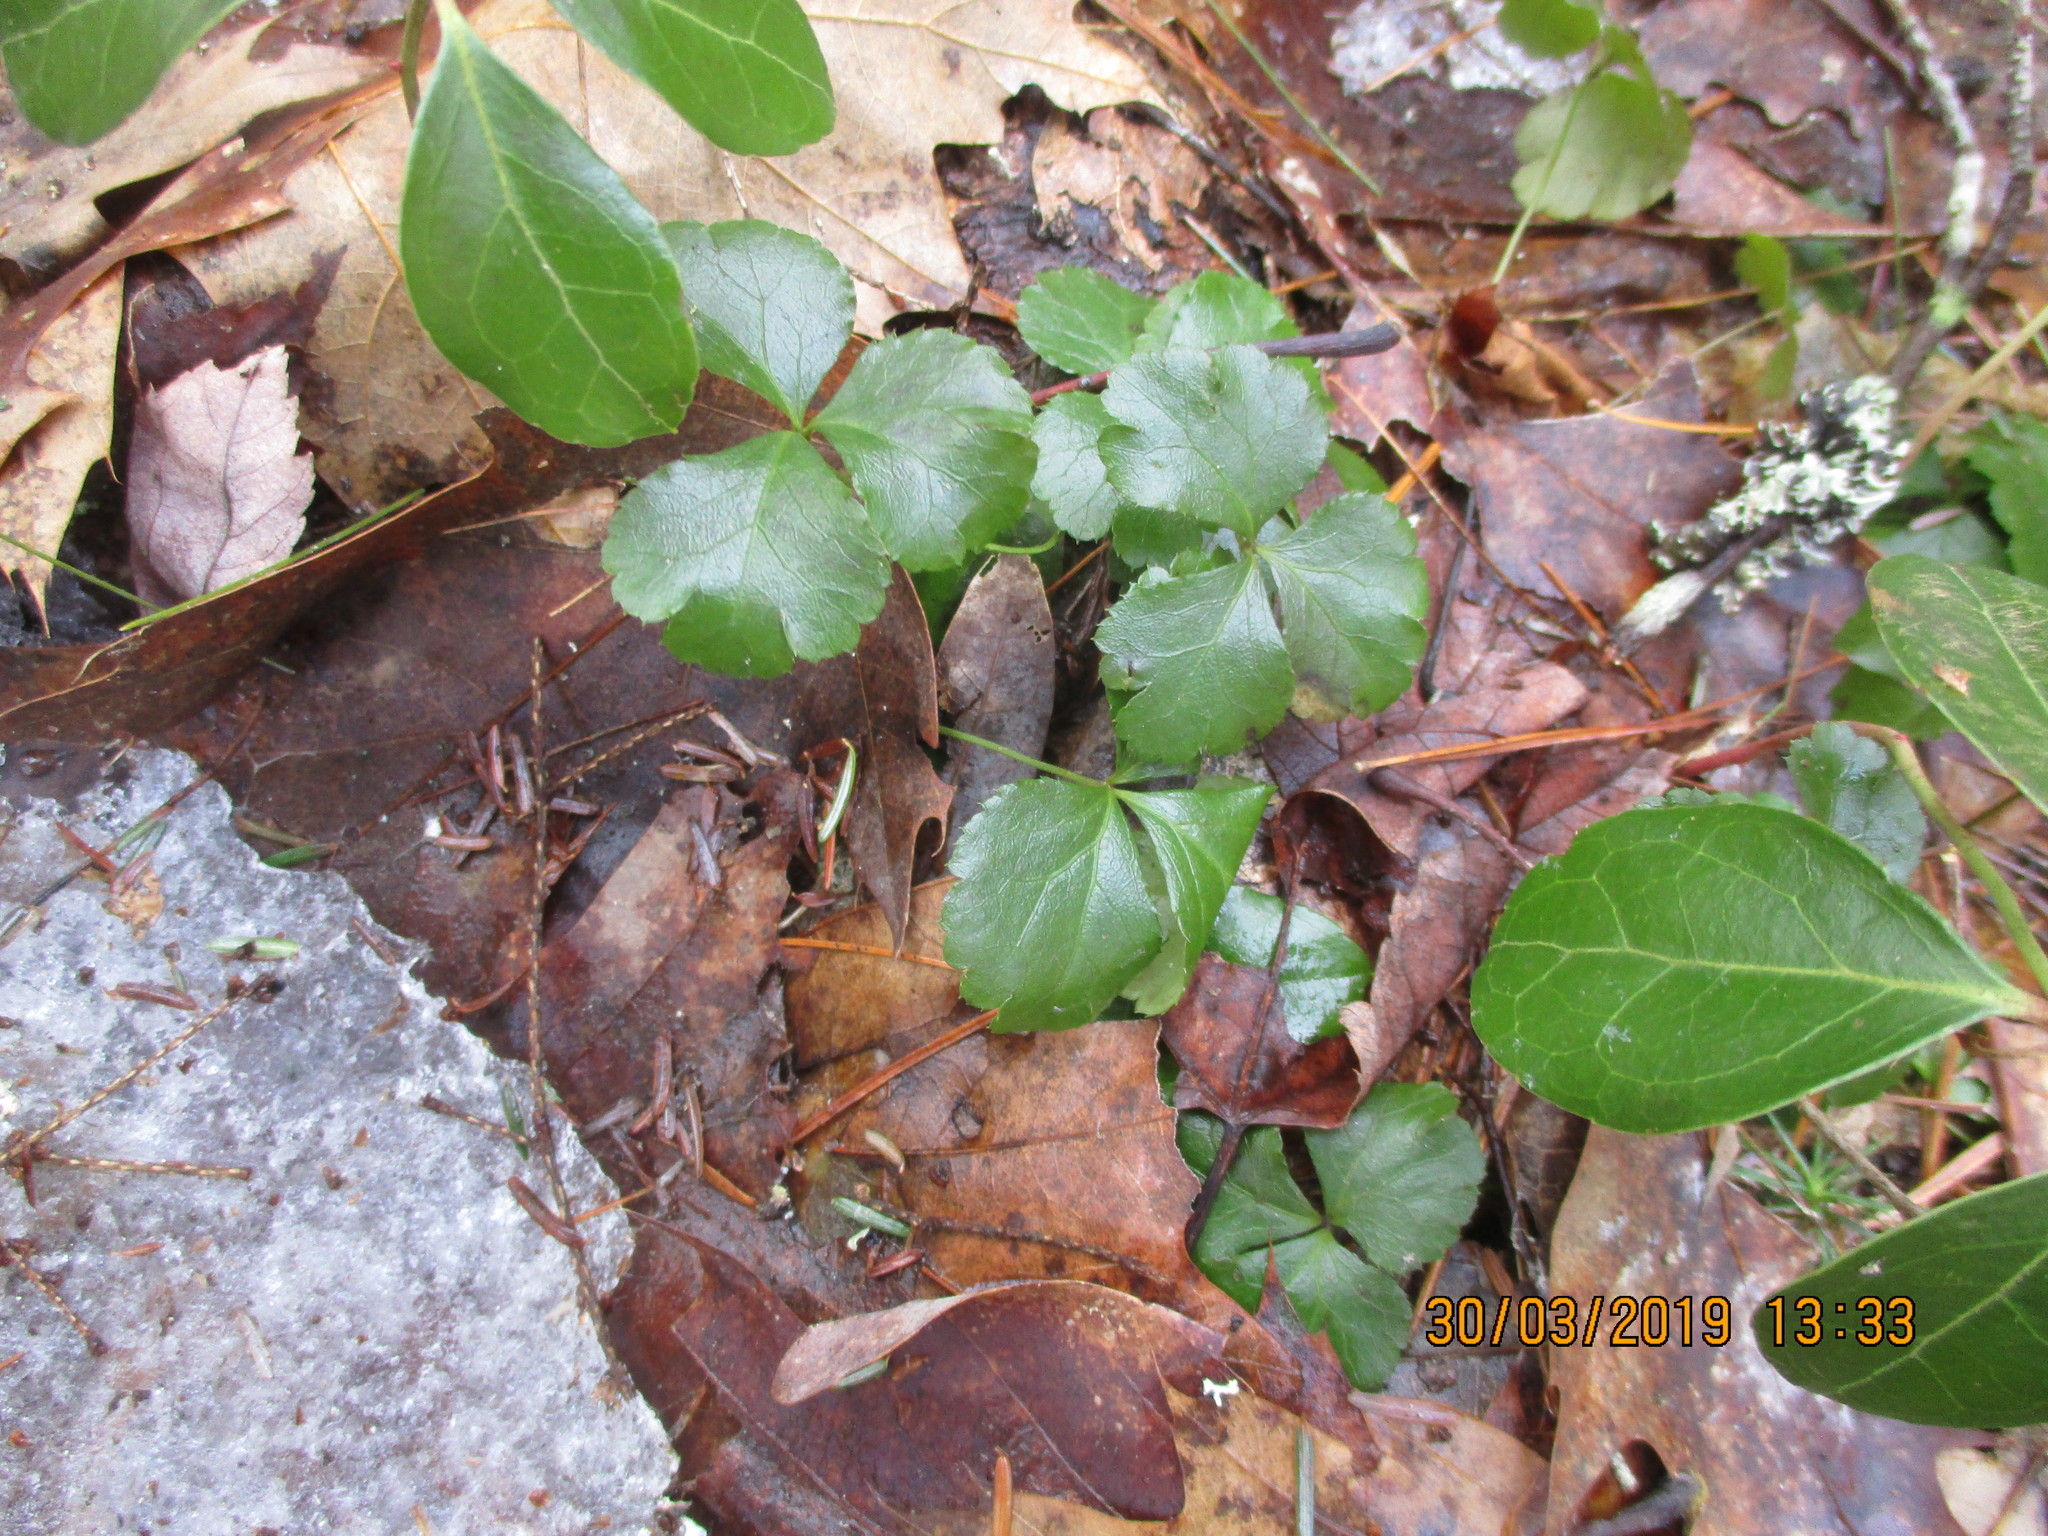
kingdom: Plantae
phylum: Tracheophyta
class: Magnoliopsida
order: Ranunculales
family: Ranunculaceae
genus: Coptis
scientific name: Coptis trifolia
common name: Canker-root
